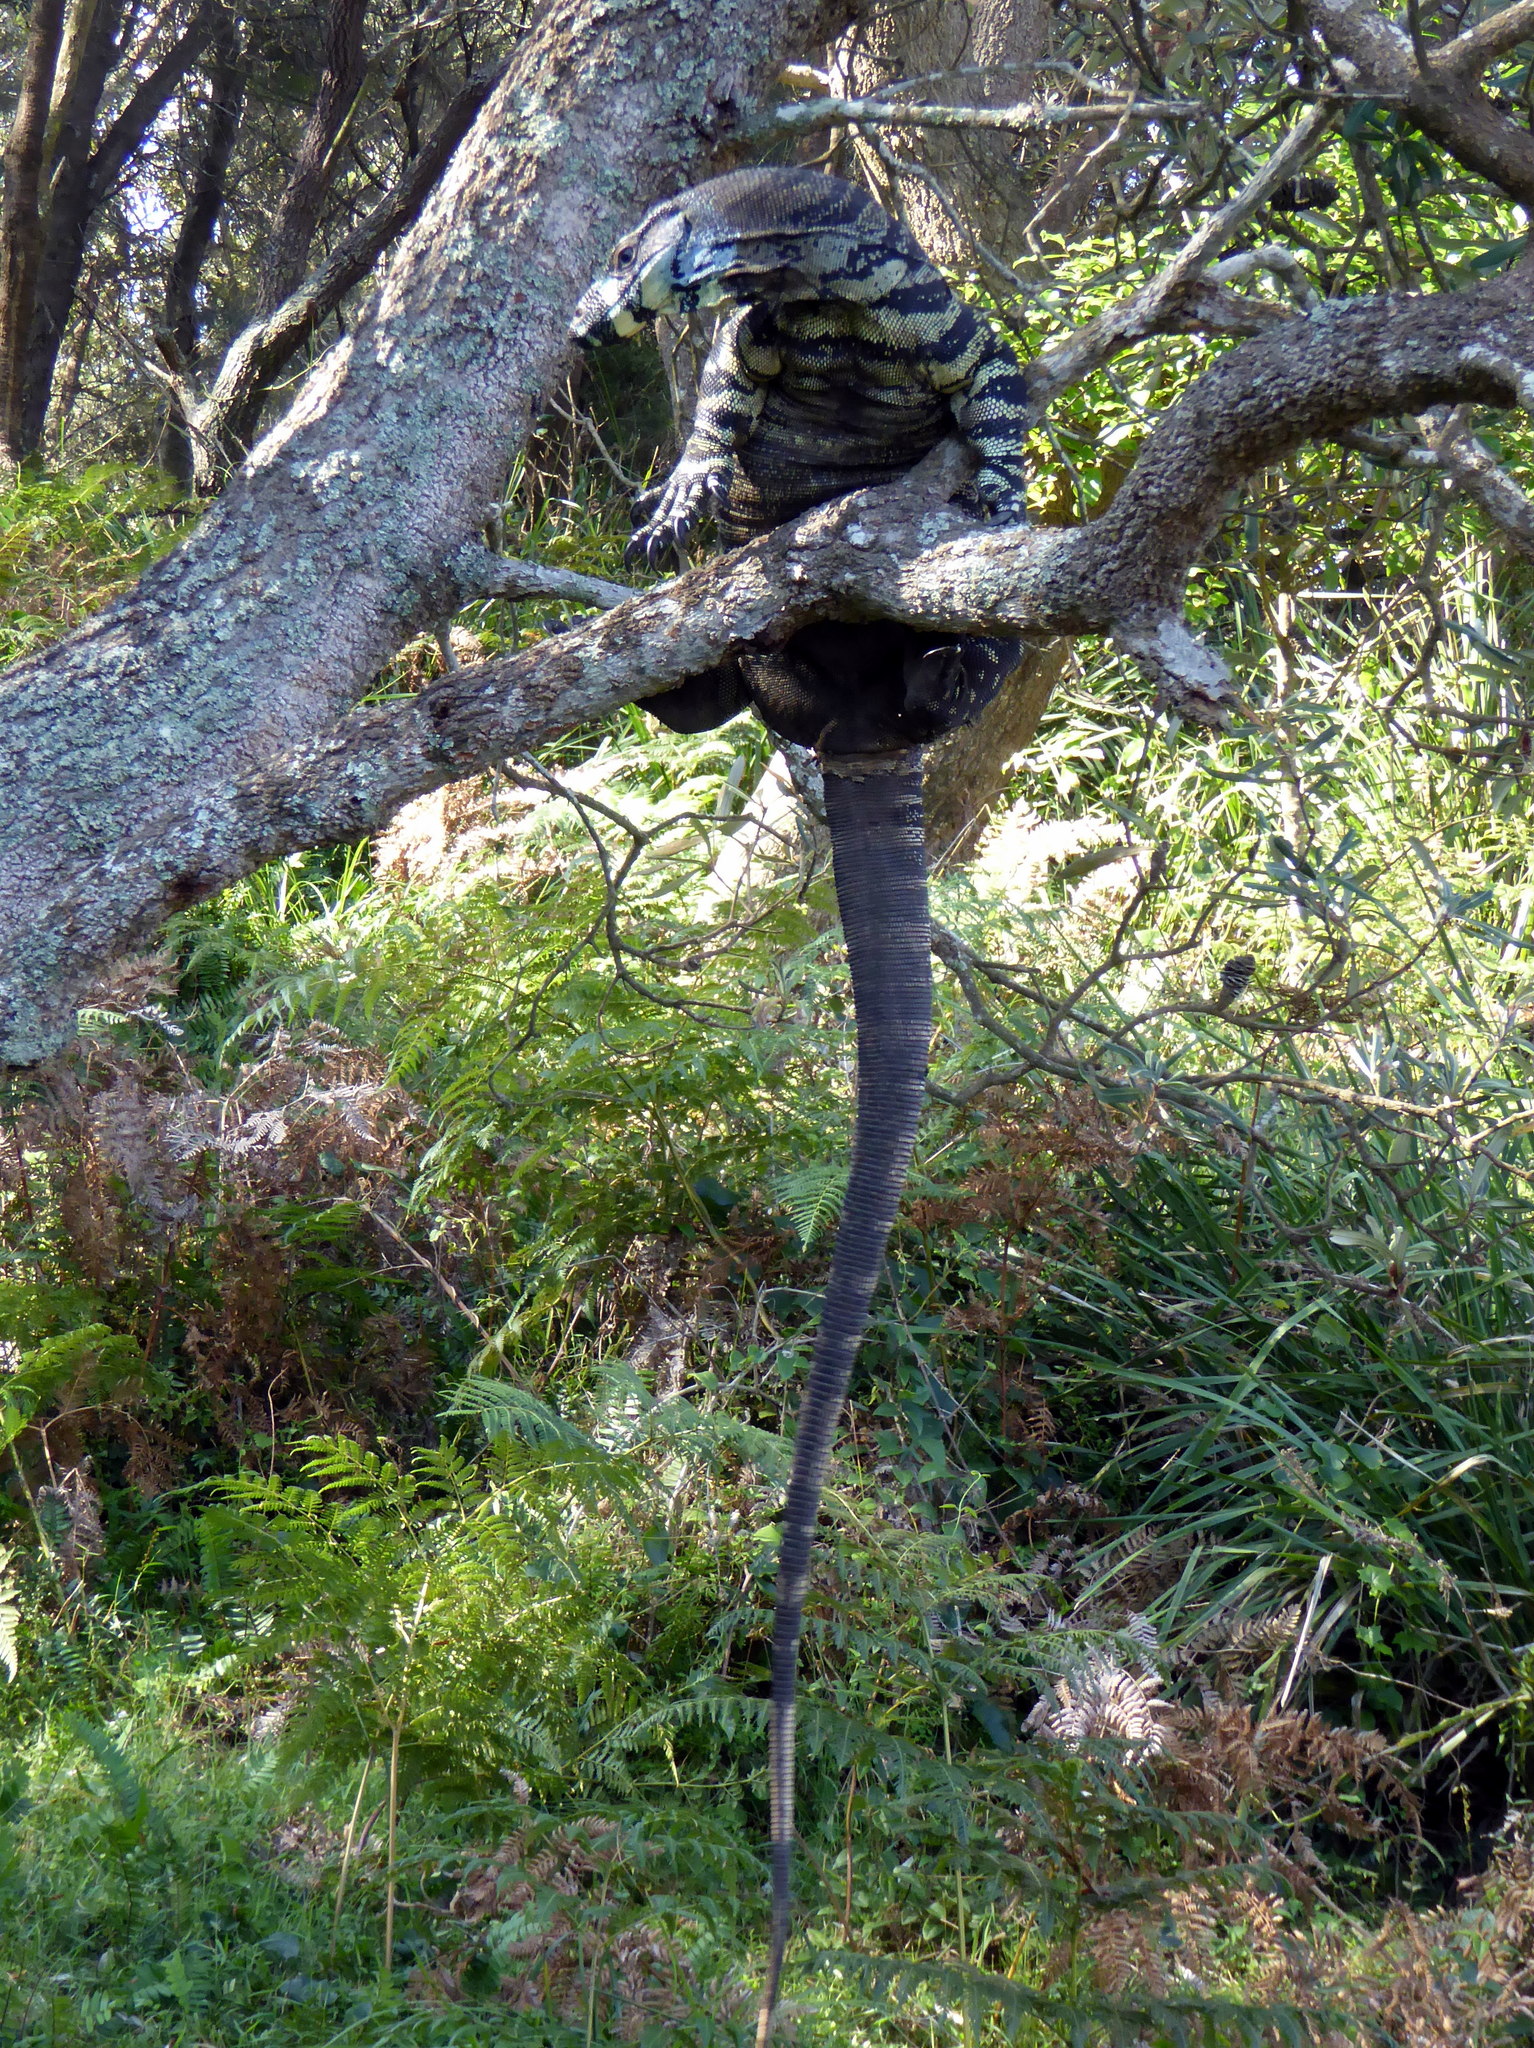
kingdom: Animalia
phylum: Chordata
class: Squamata
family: Varanidae
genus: Varanus
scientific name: Varanus varius
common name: Lace monitor
